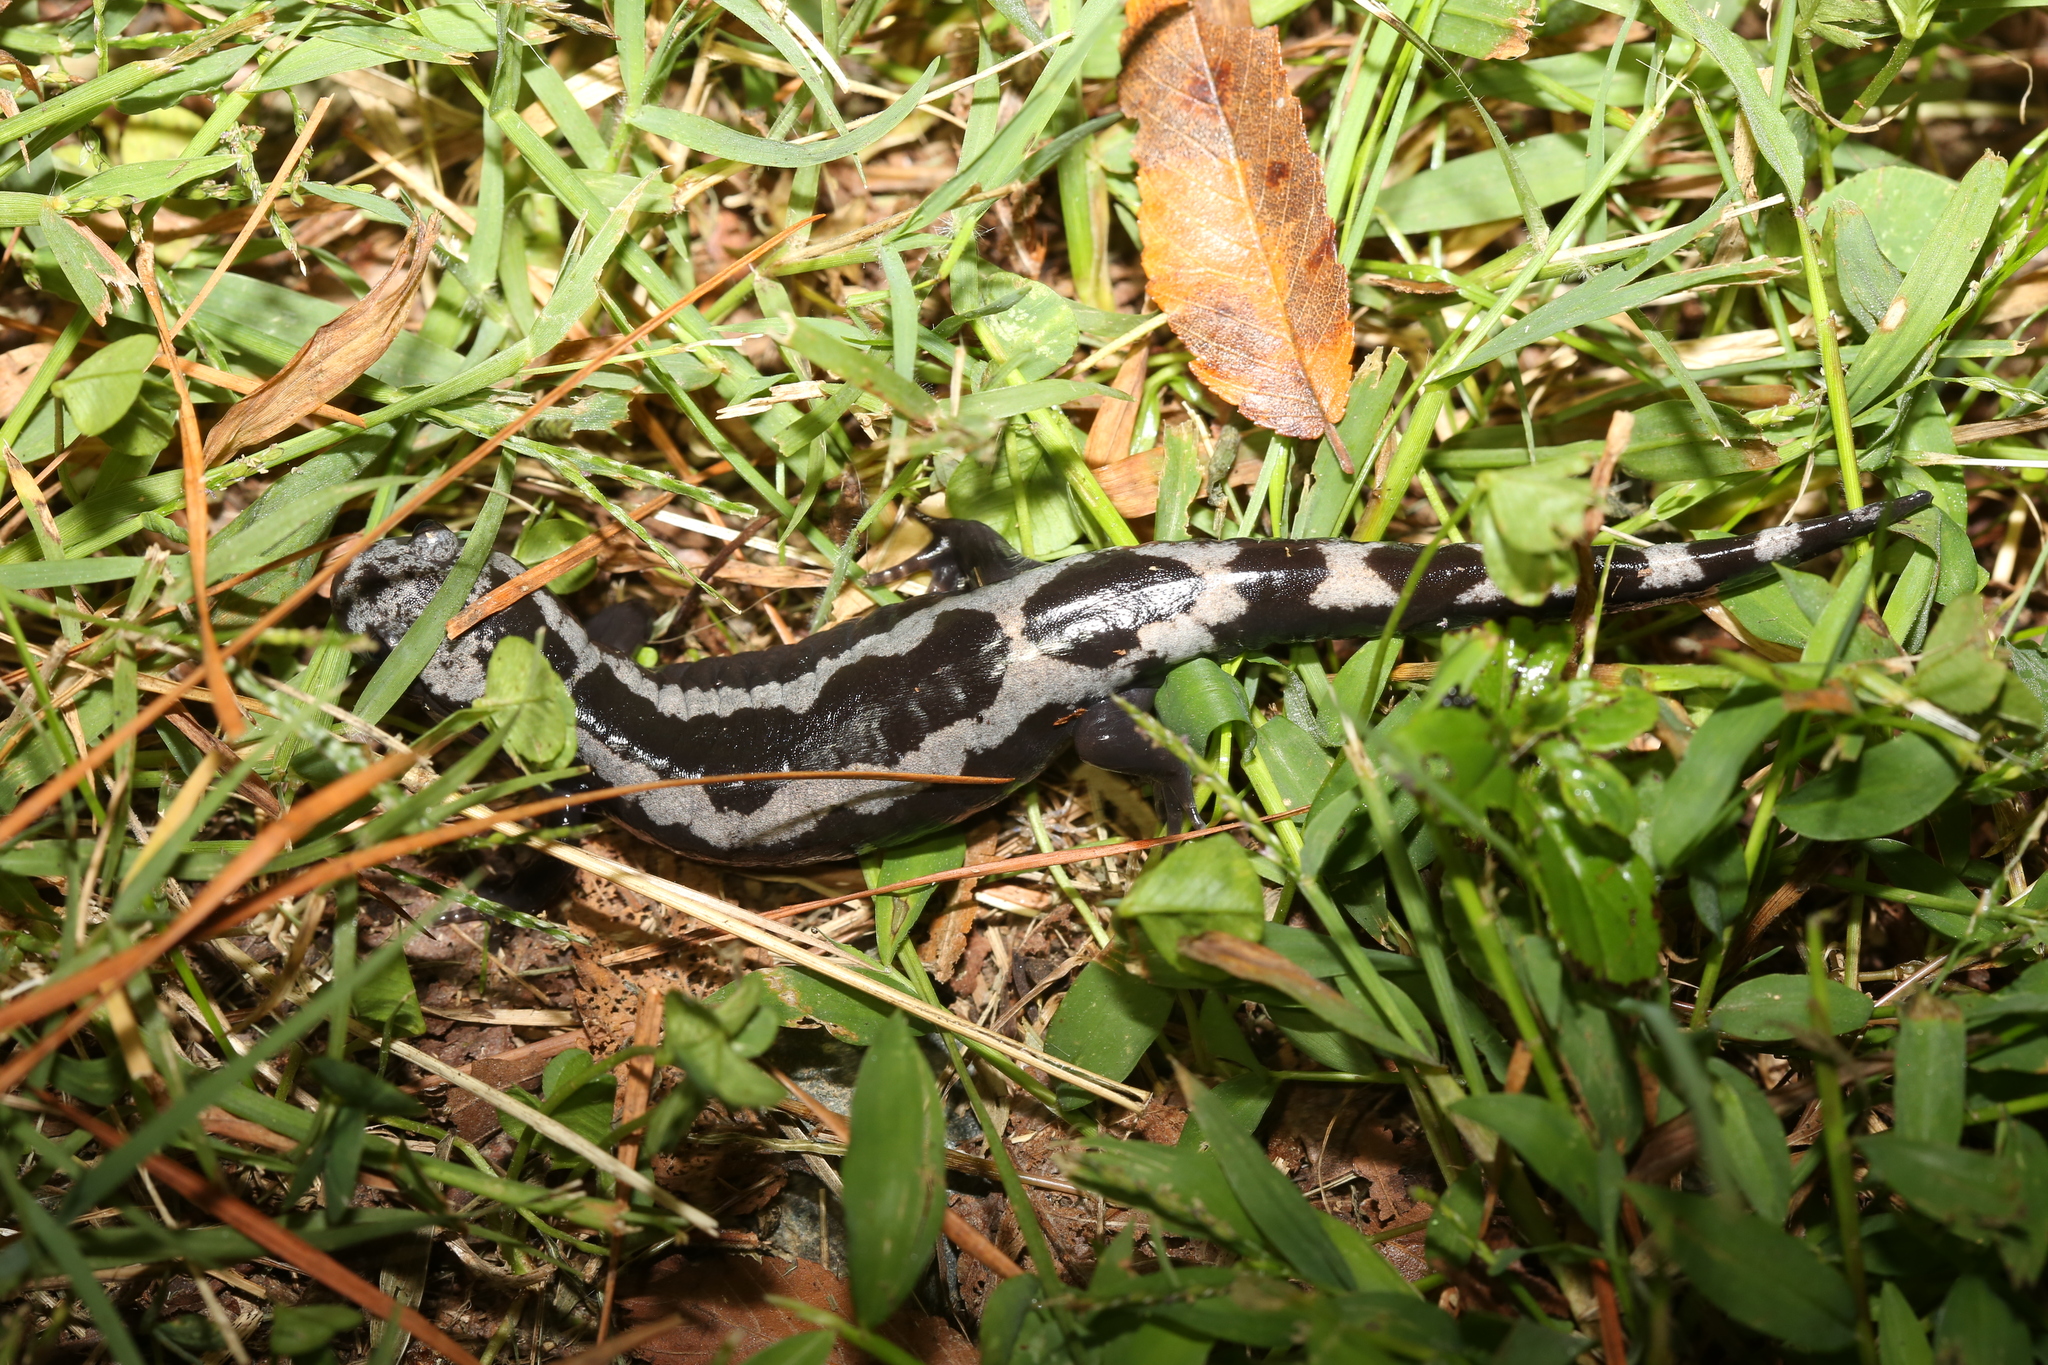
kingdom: Animalia
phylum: Chordata
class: Amphibia
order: Caudata
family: Ambystomatidae
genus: Ambystoma
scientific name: Ambystoma opacum
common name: Marbled salamander
